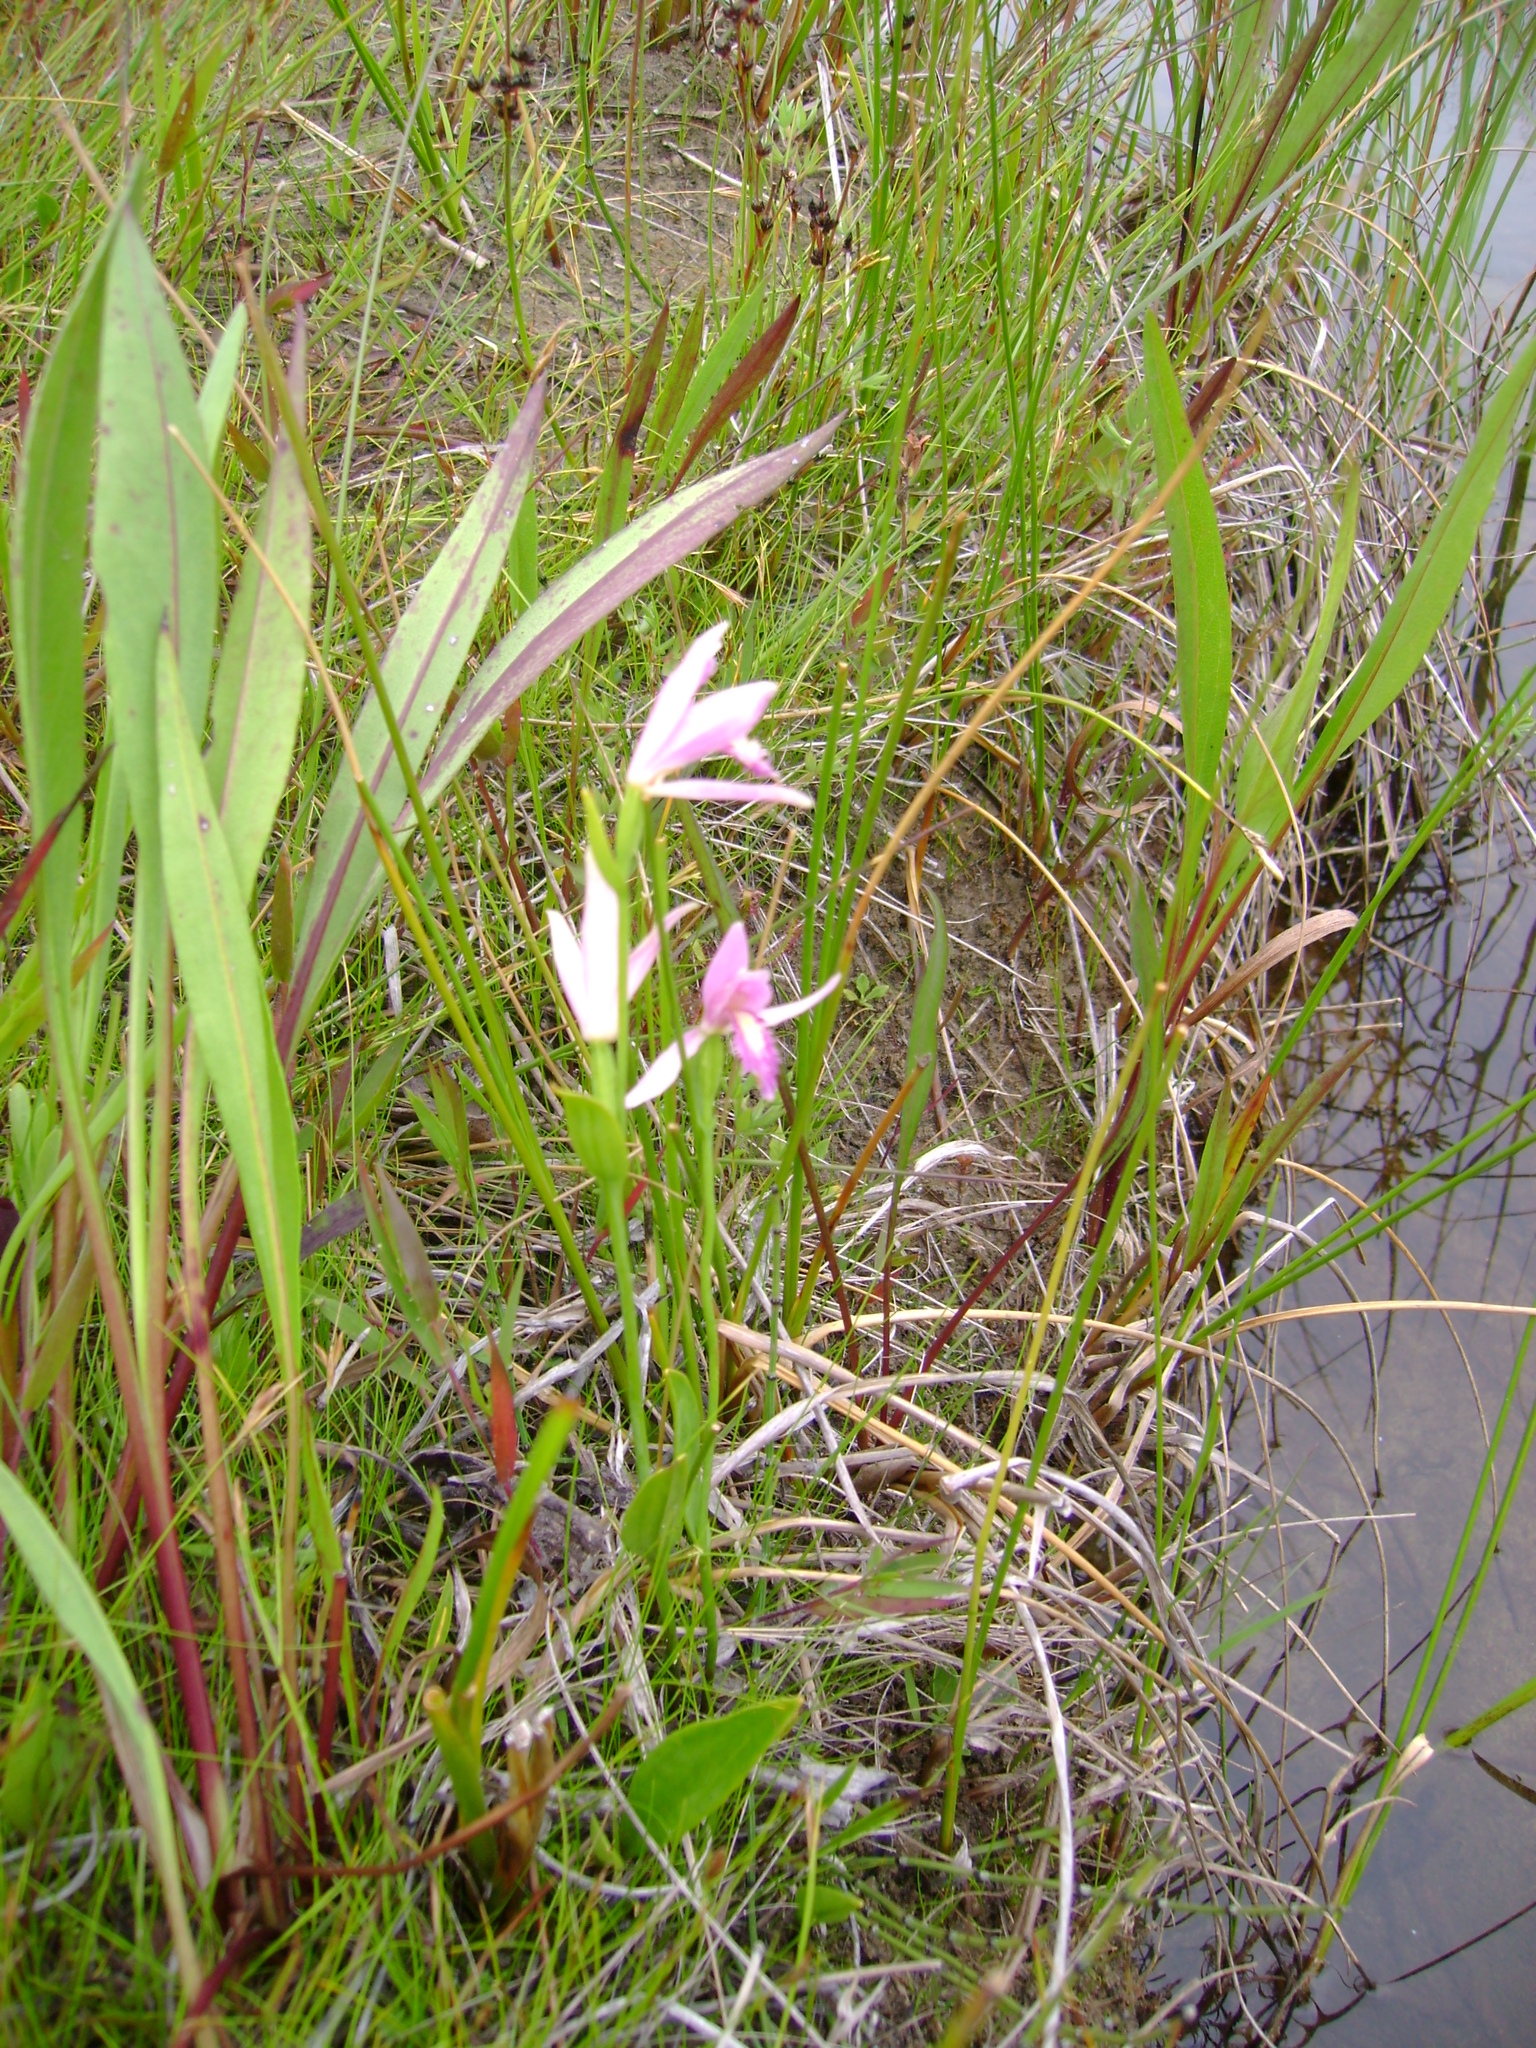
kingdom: Plantae
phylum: Tracheophyta
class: Liliopsida
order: Asparagales
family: Orchidaceae
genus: Pogonia
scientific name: Pogonia ophioglossoides
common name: Rose pogonia
